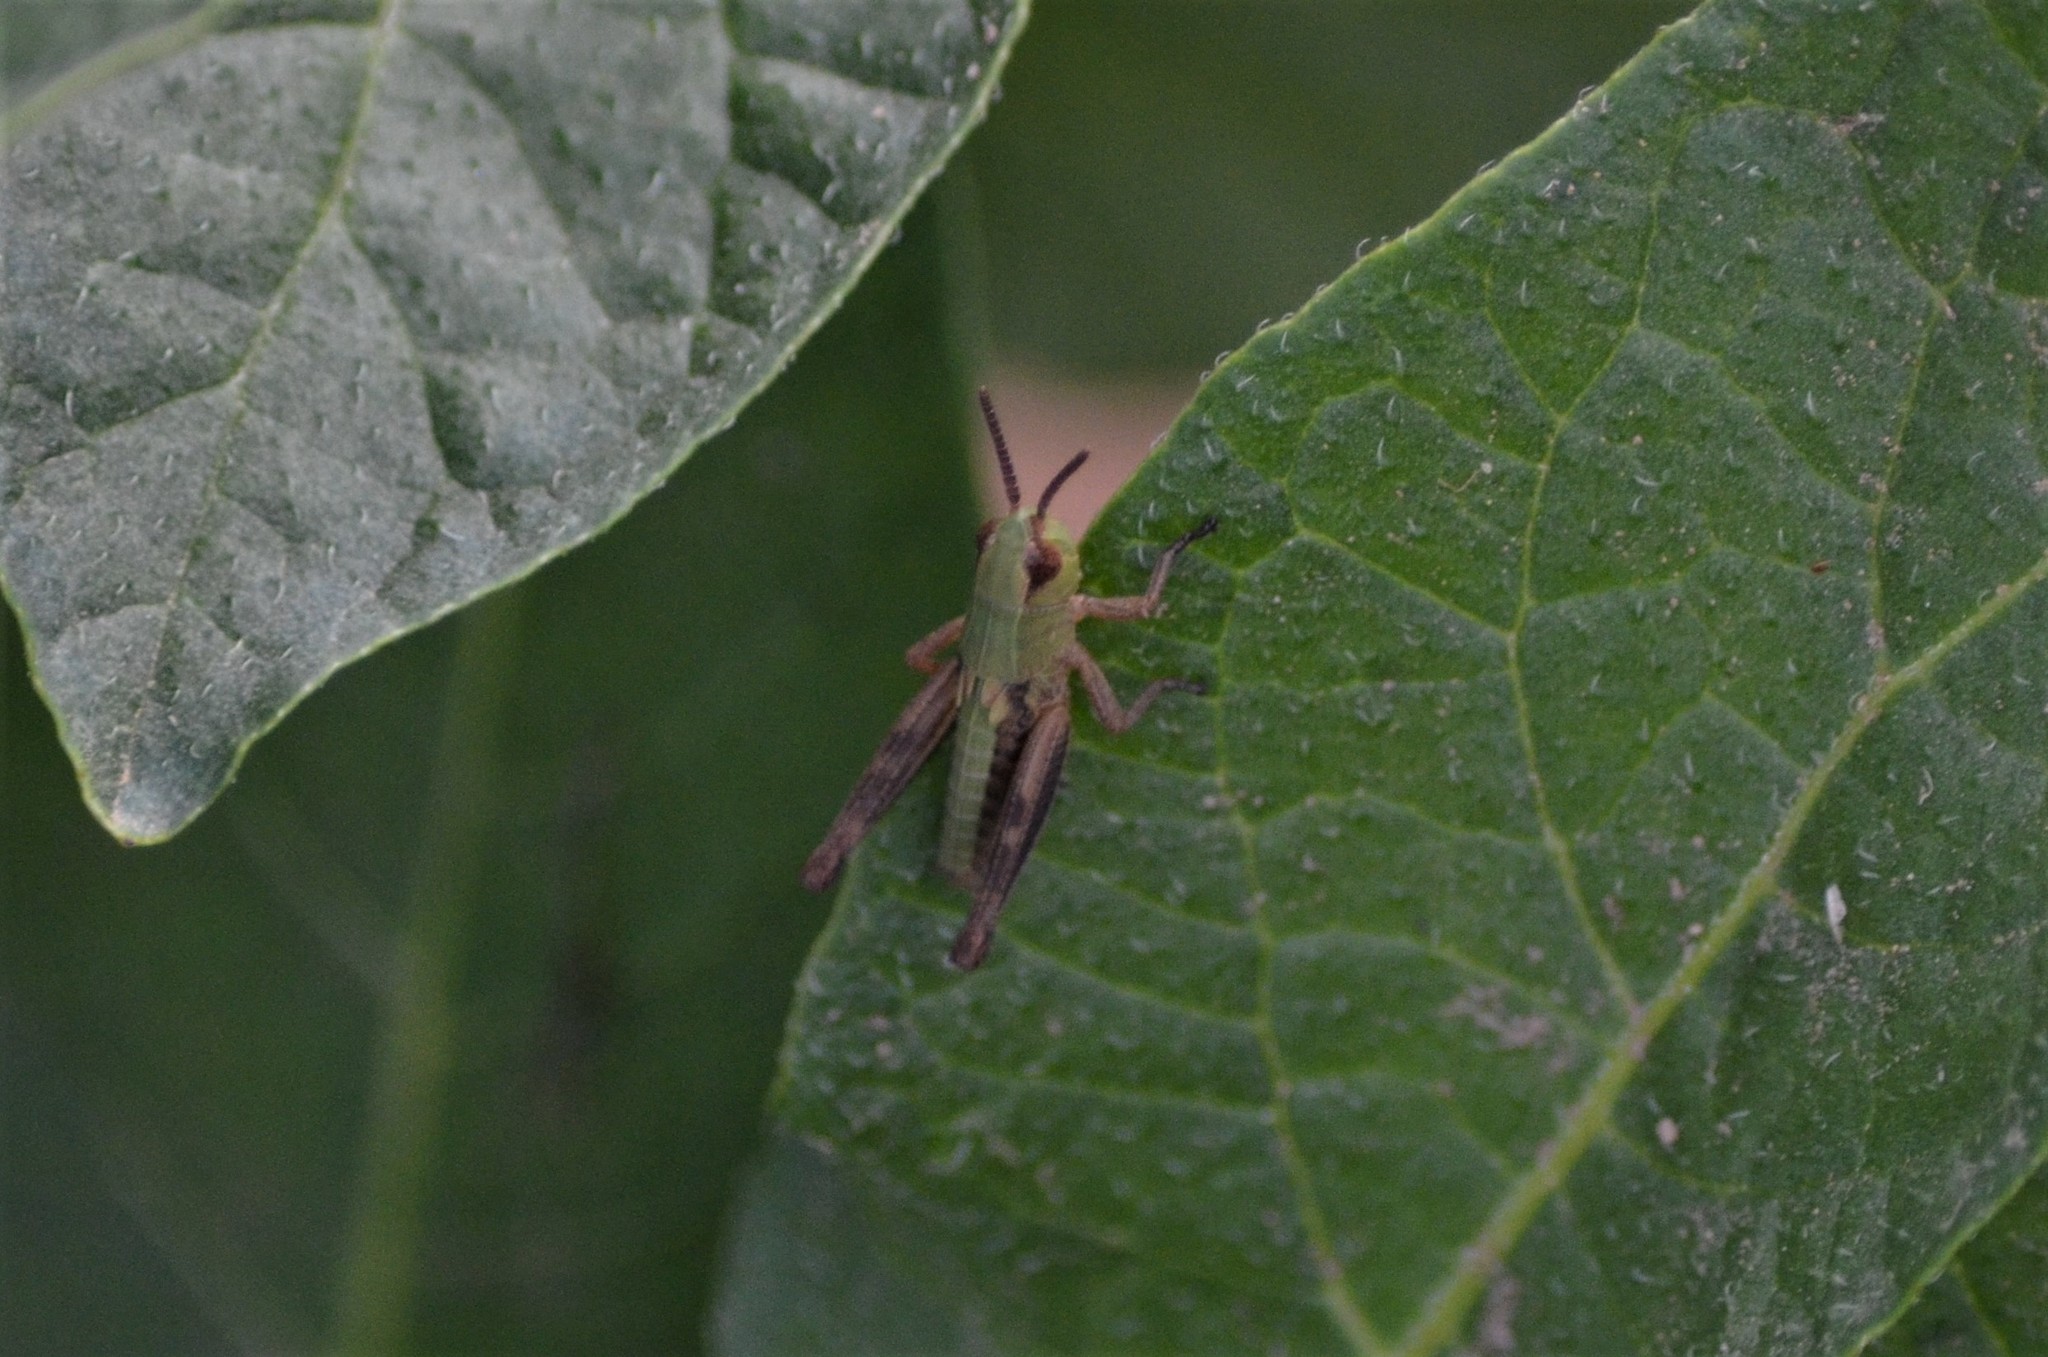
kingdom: Animalia
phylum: Arthropoda
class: Insecta
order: Orthoptera
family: Acrididae
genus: Pseudochorthippus
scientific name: Pseudochorthippus parallelus
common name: Meadow grasshopper
